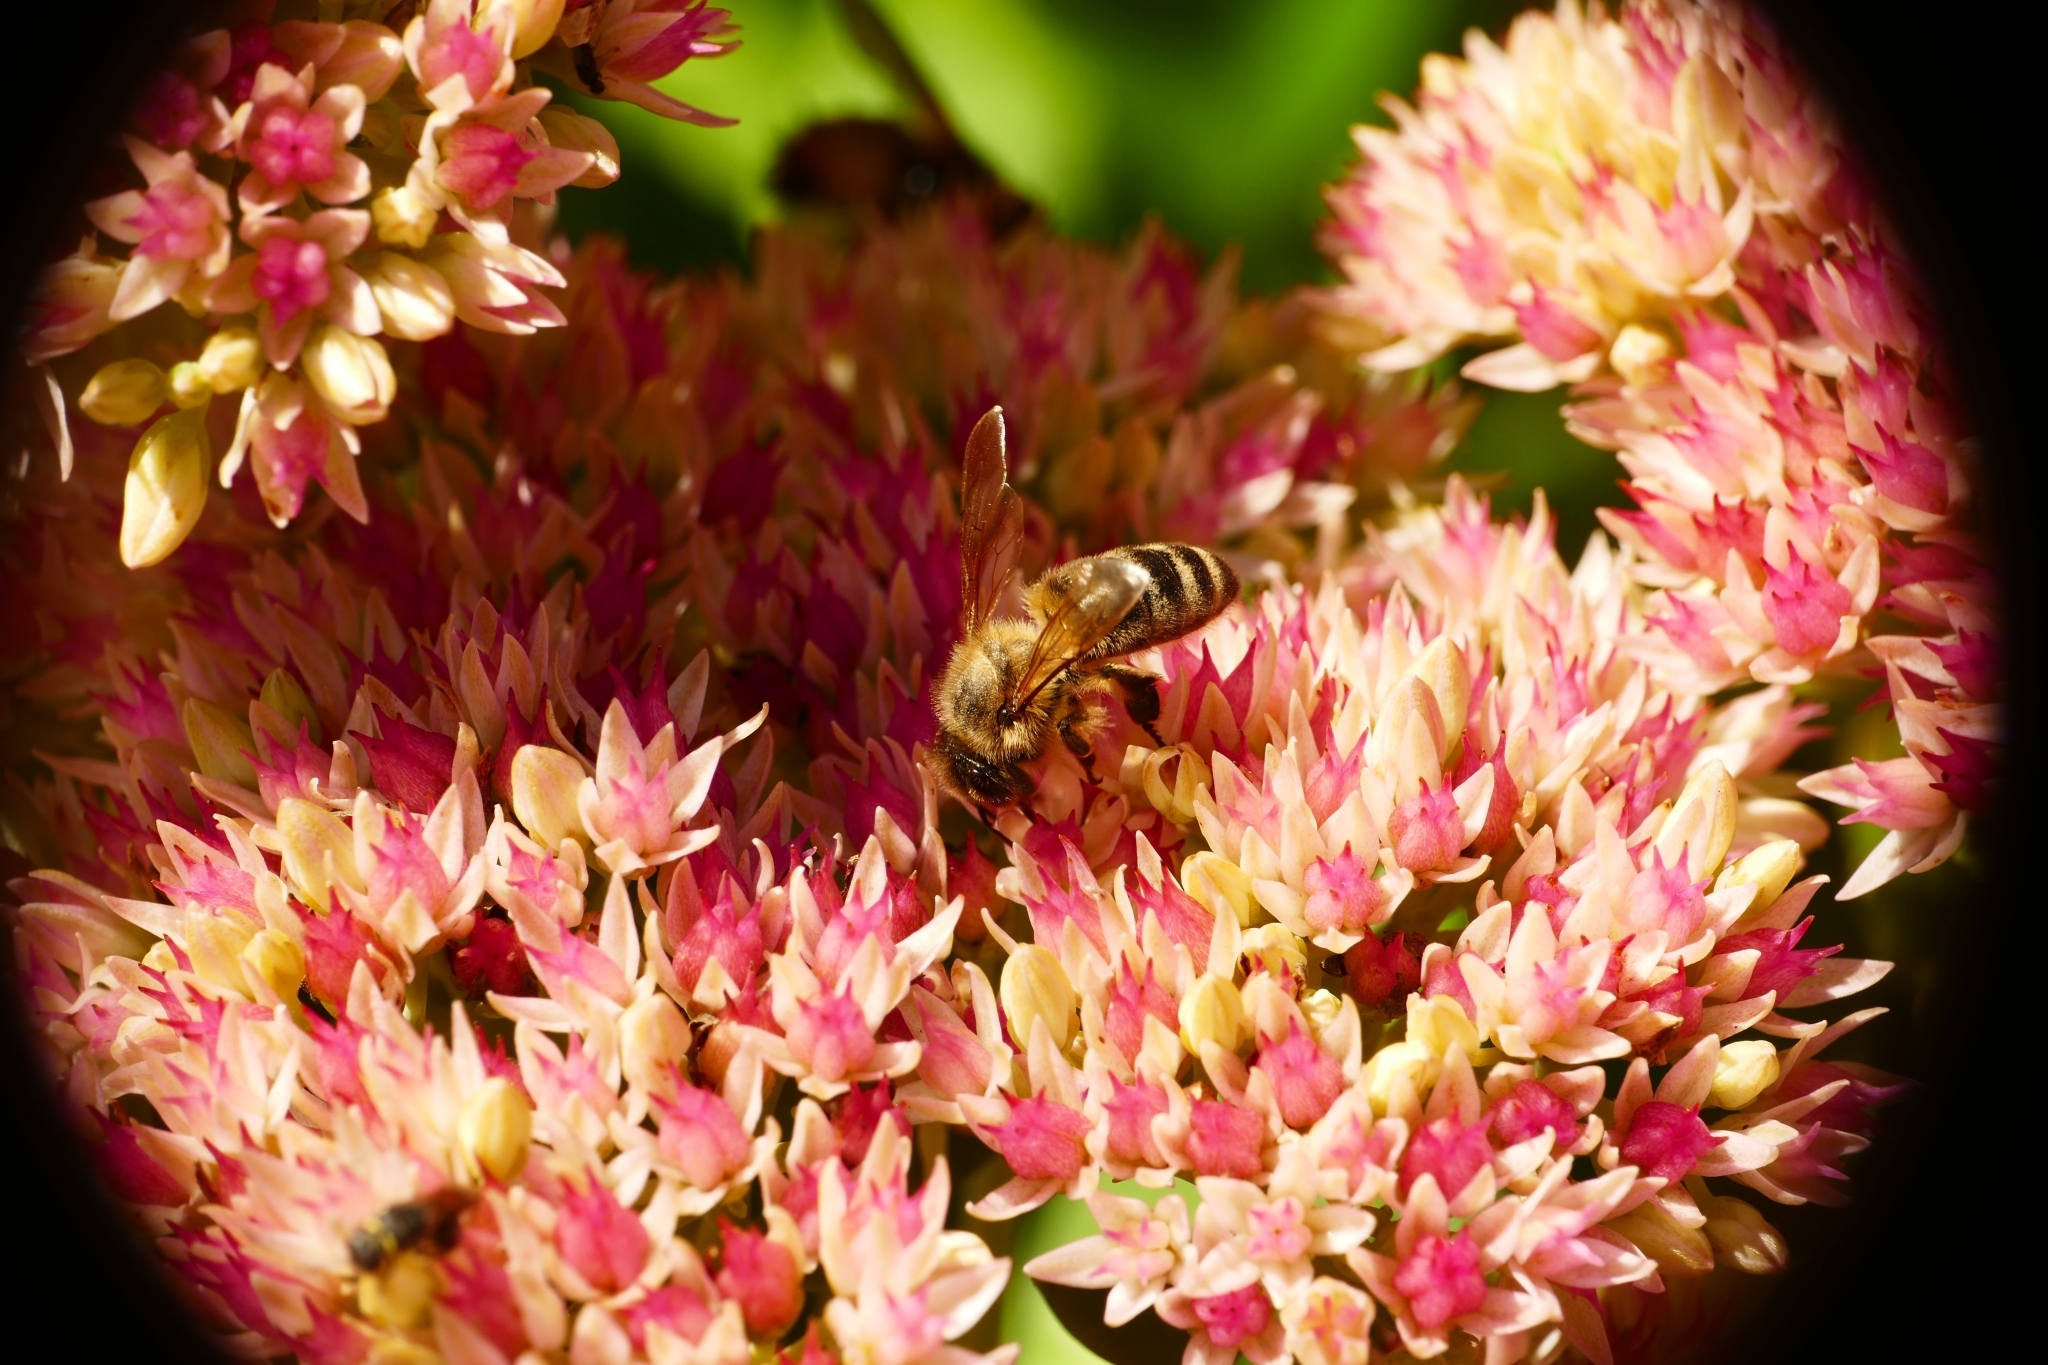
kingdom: Animalia
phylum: Arthropoda
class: Insecta
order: Hymenoptera
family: Apidae
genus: Apis
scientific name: Apis mellifera
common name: Honey bee
